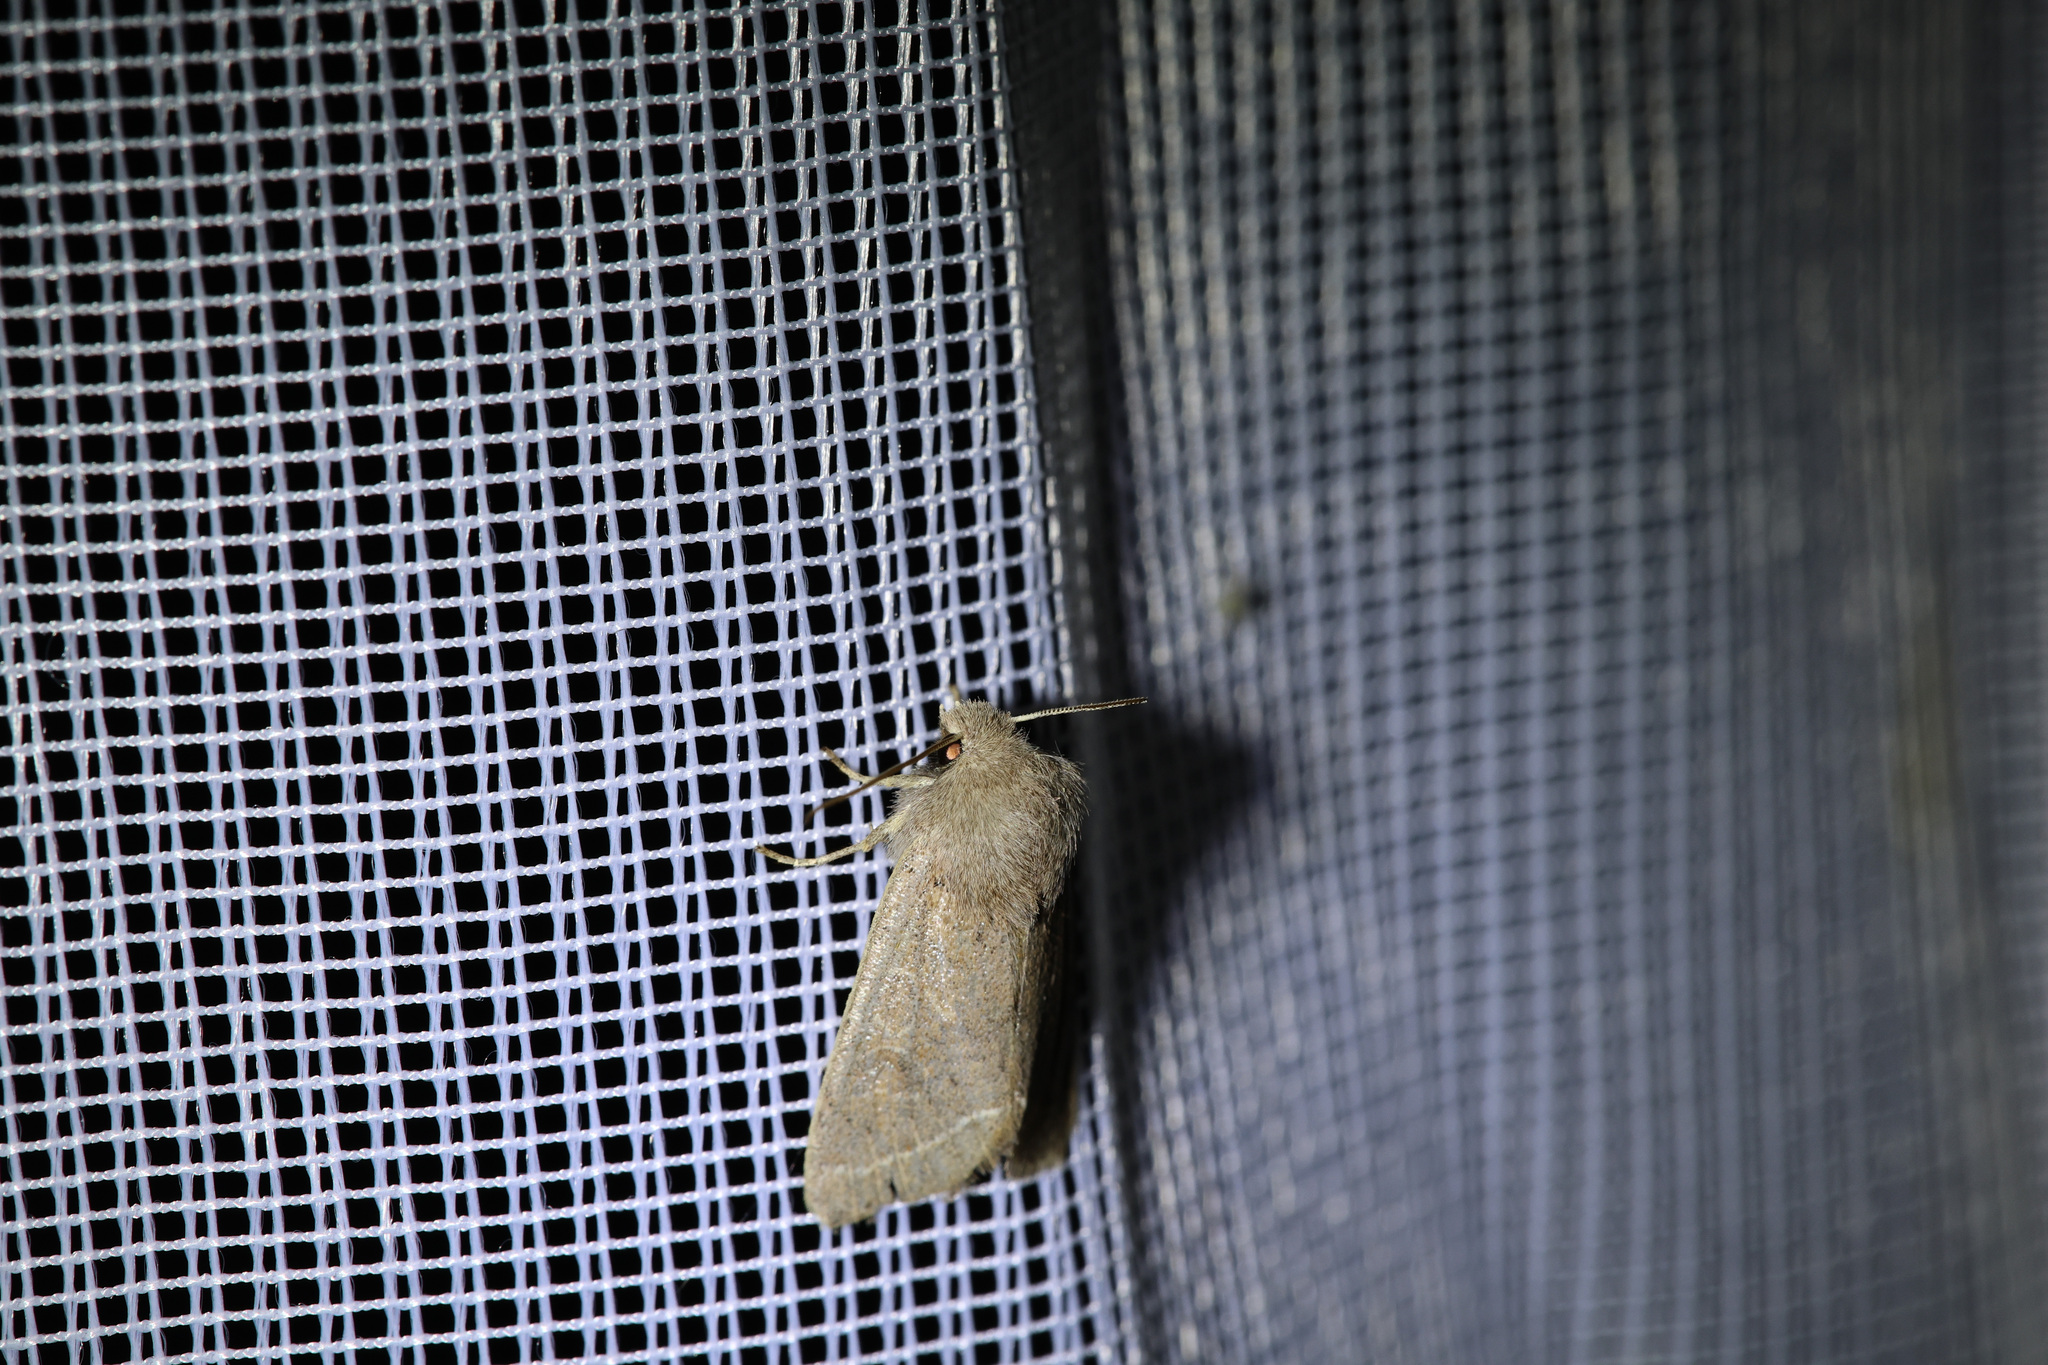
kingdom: Animalia
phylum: Arthropoda
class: Insecta
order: Lepidoptera
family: Noctuidae
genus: Orthosia
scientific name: Orthosia cerasi
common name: Common quaker
